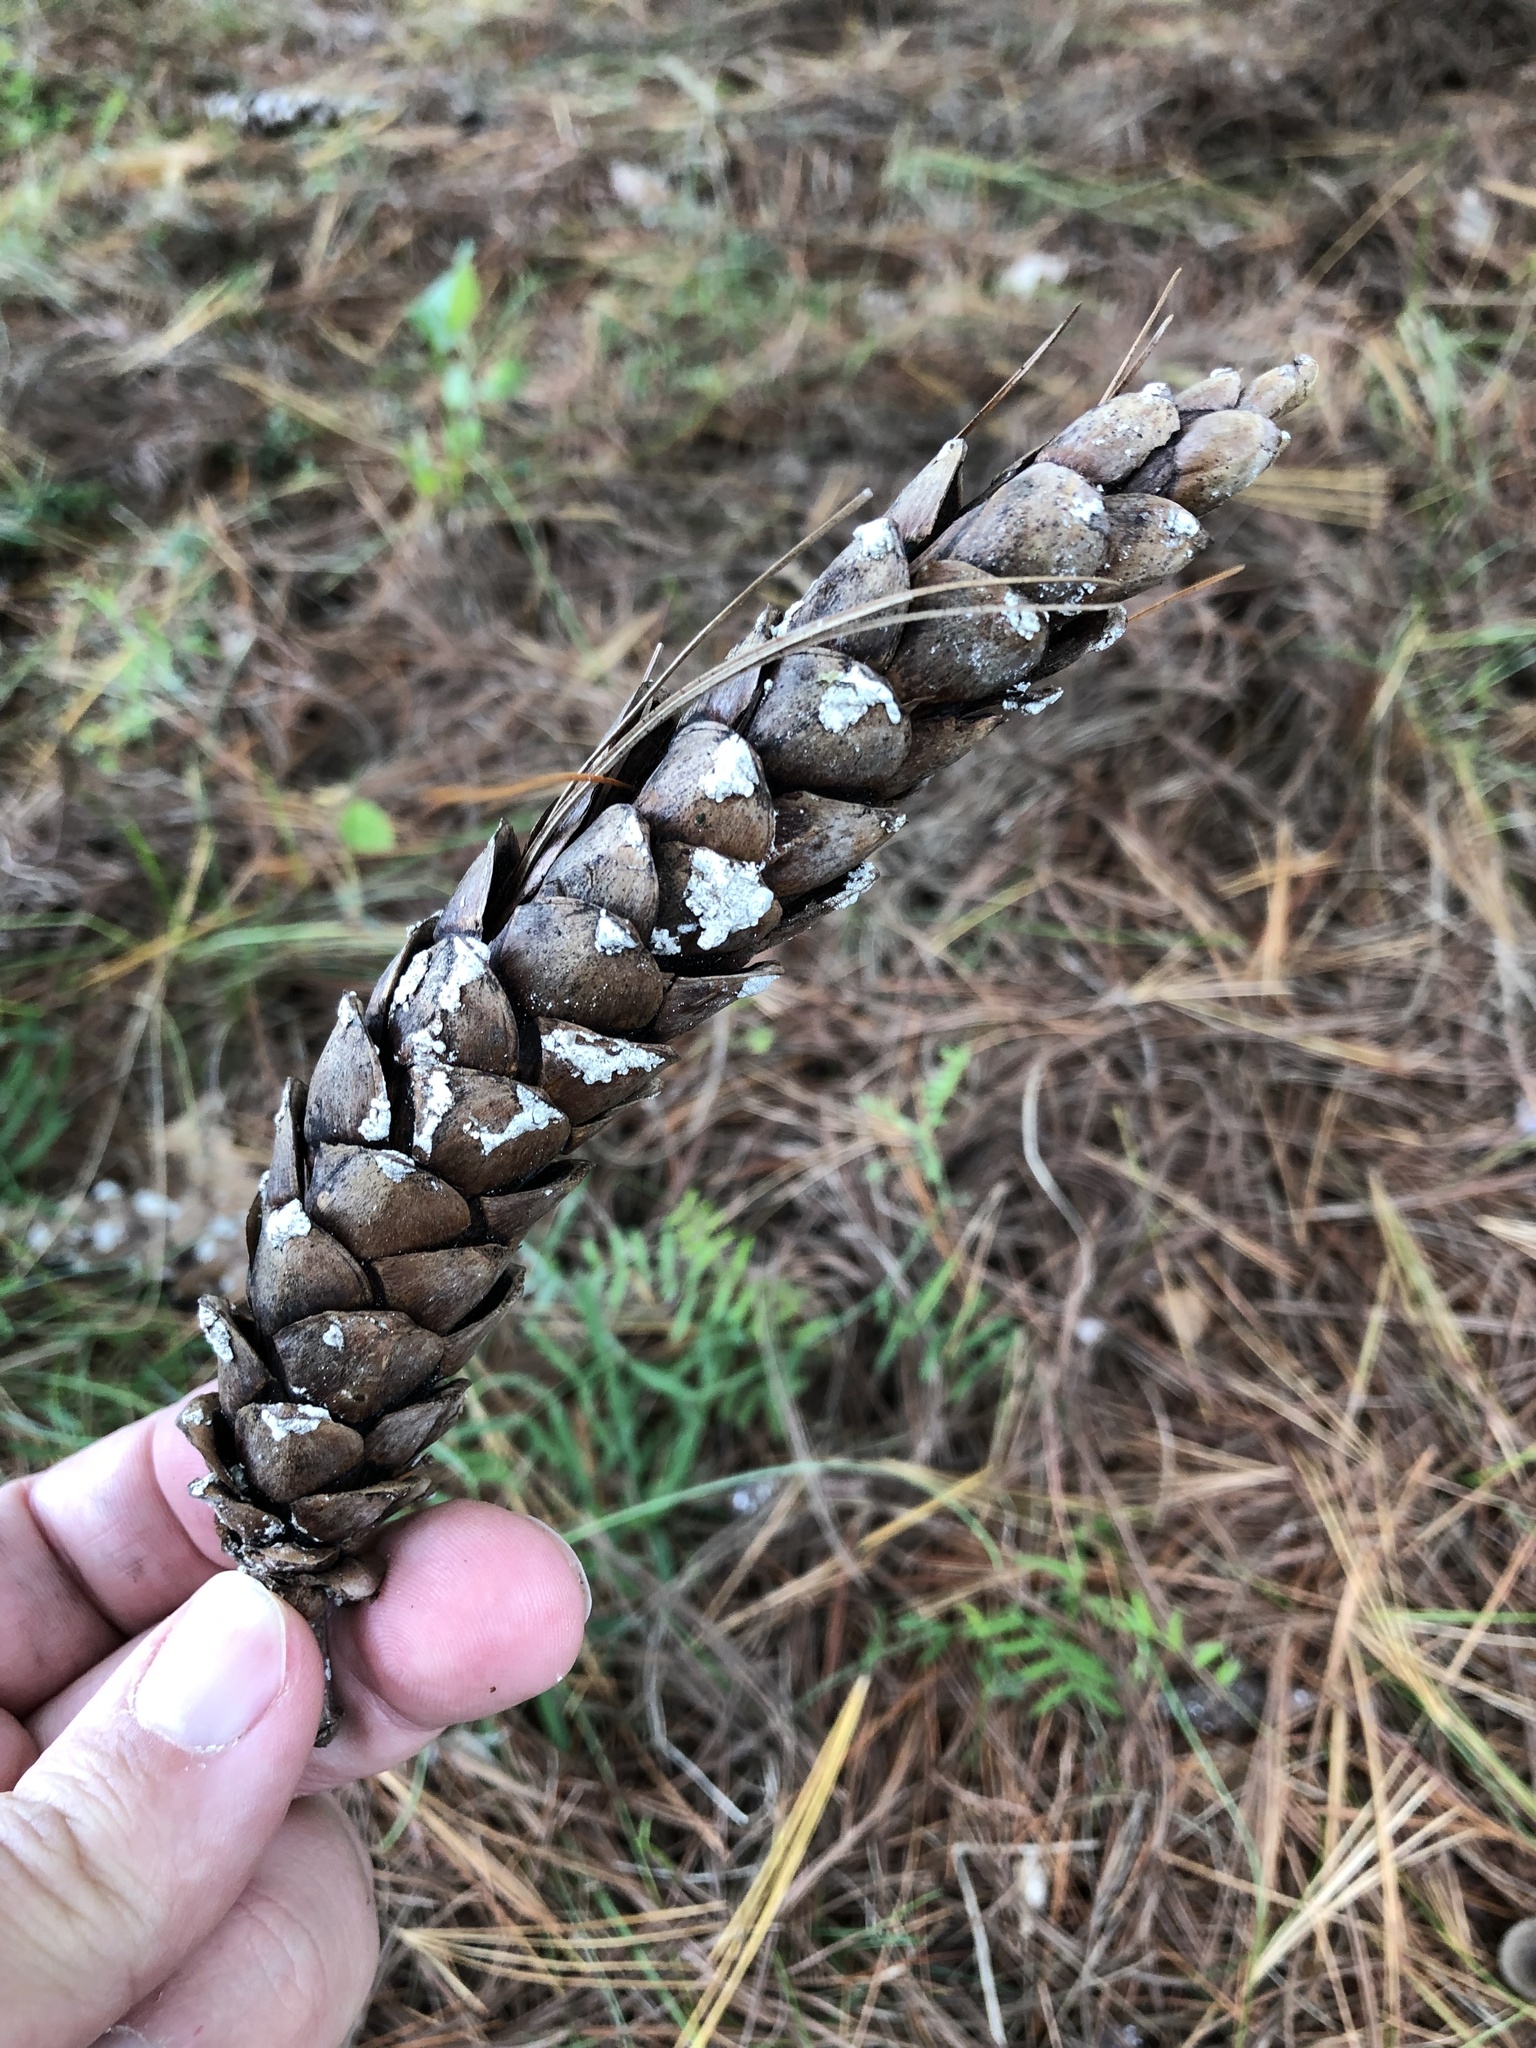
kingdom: Plantae
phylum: Tracheophyta
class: Pinopsida
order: Pinales
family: Pinaceae
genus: Pinus
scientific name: Pinus strobus
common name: Weymouth pine
